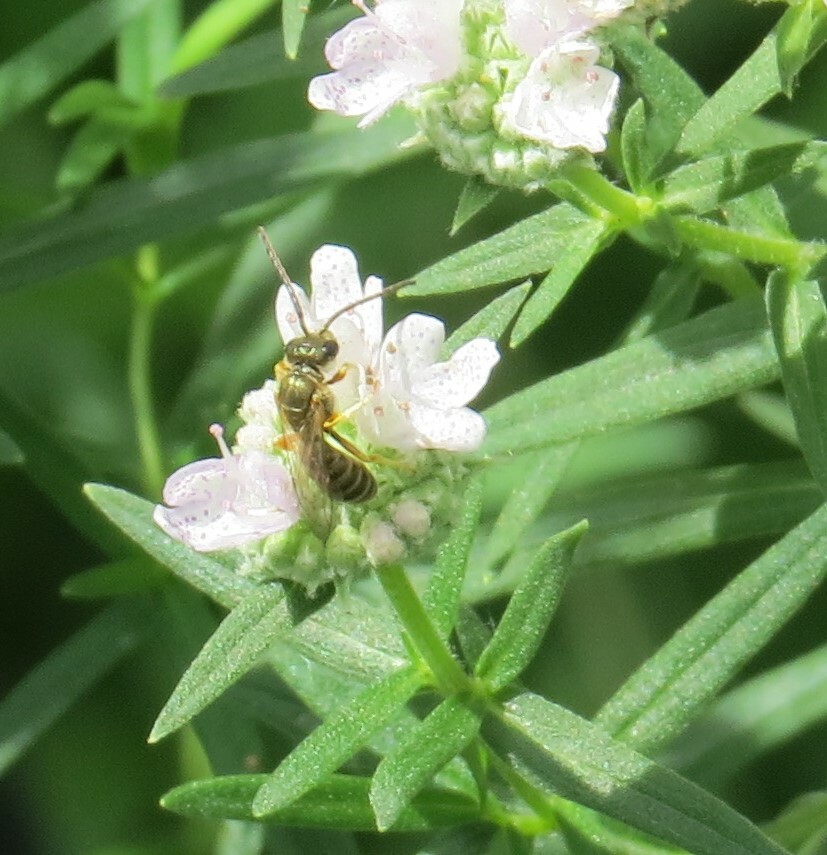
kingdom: Animalia
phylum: Arthropoda
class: Insecta
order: Hymenoptera
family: Halictidae
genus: Halictus
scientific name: Halictus confusus
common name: Southern bronze furrow bee
